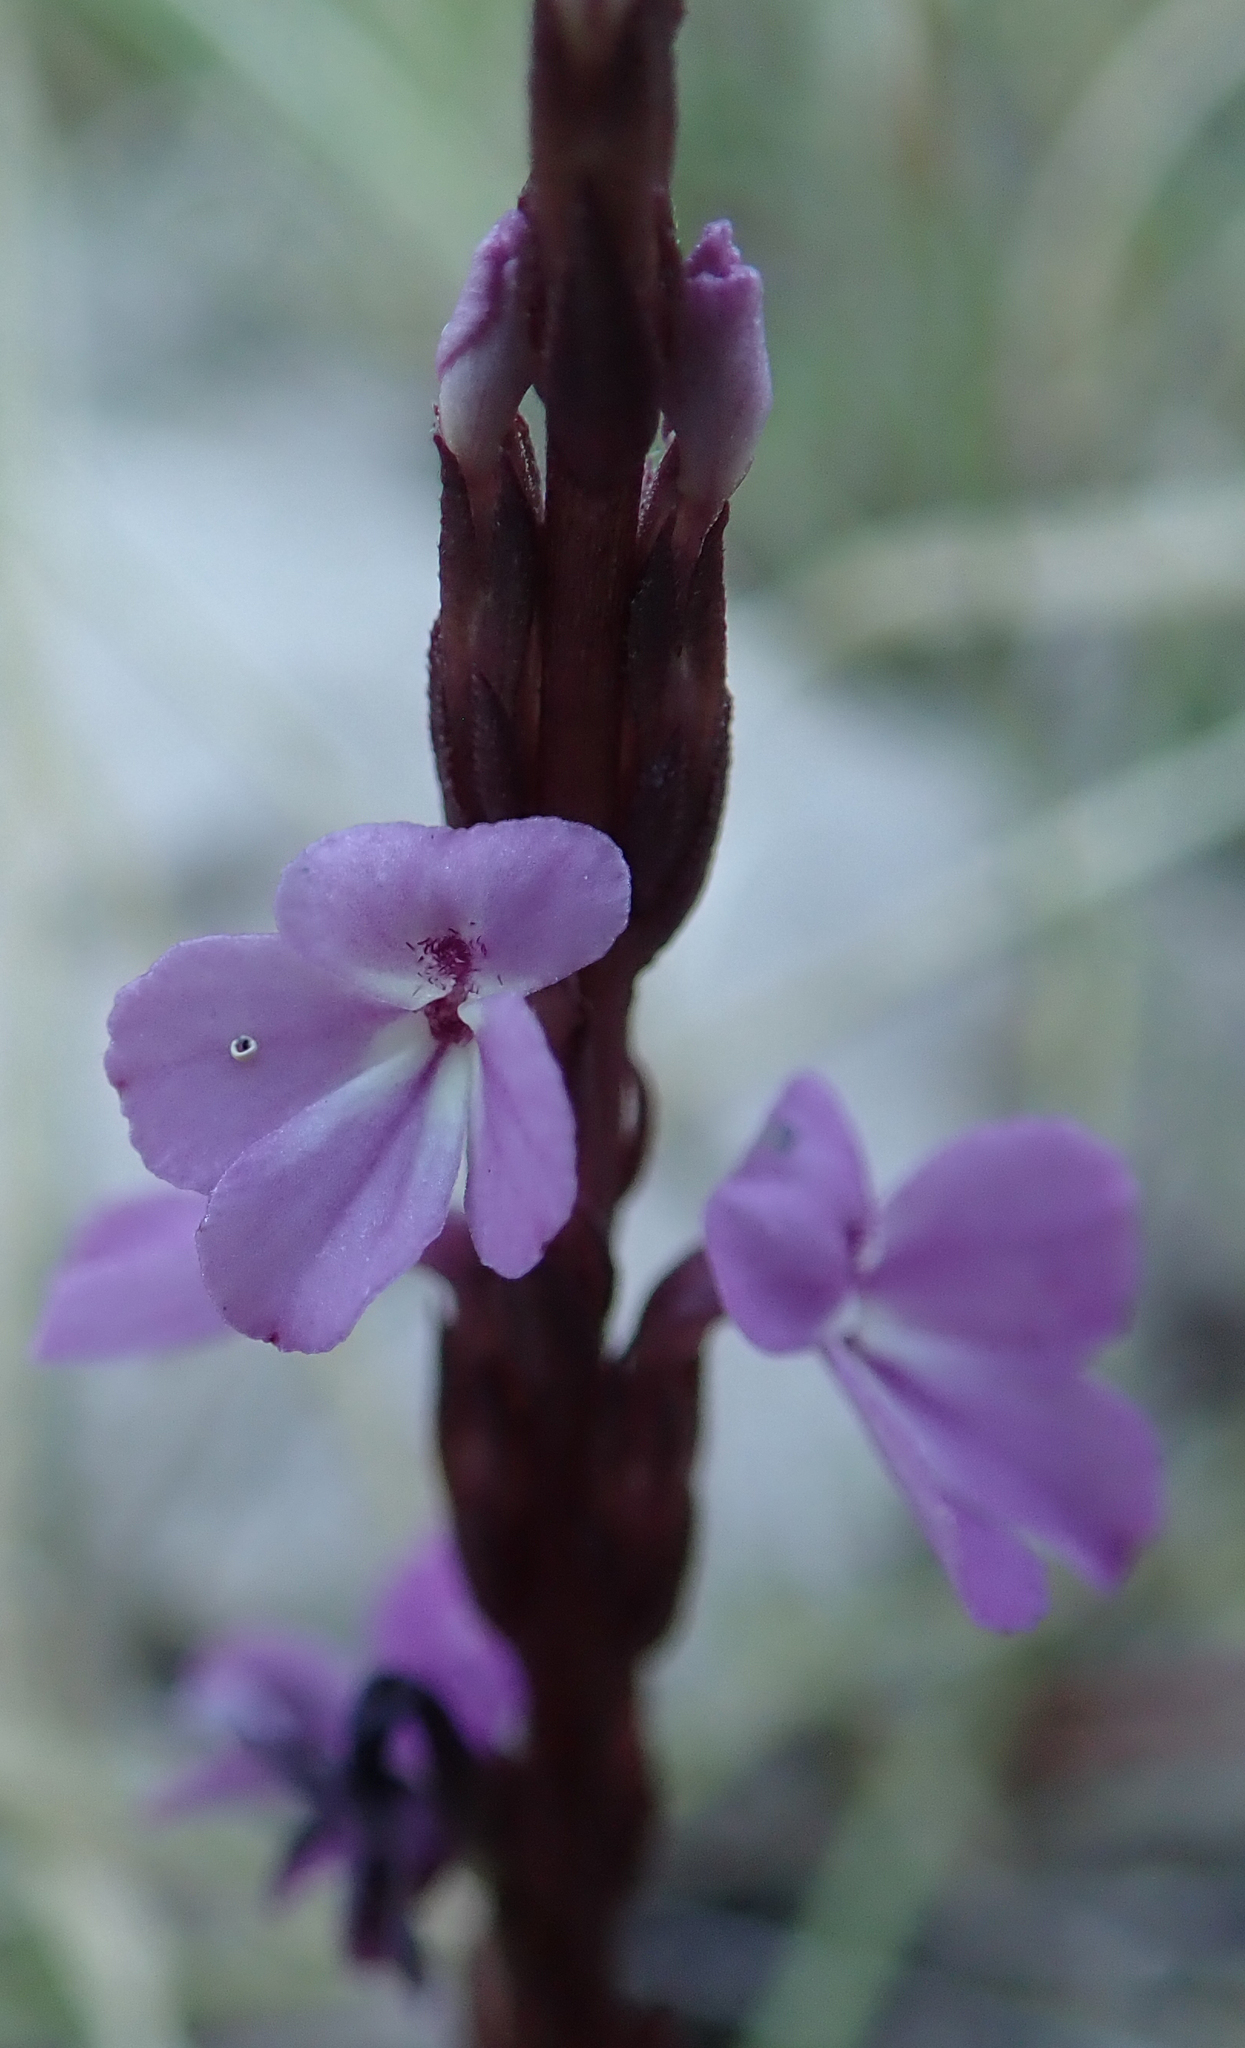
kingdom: Plantae
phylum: Tracheophyta
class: Magnoliopsida
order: Lamiales
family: Orobanchaceae
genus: Striga
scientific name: Striga gesnerioides
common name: Cowpea witchweed
